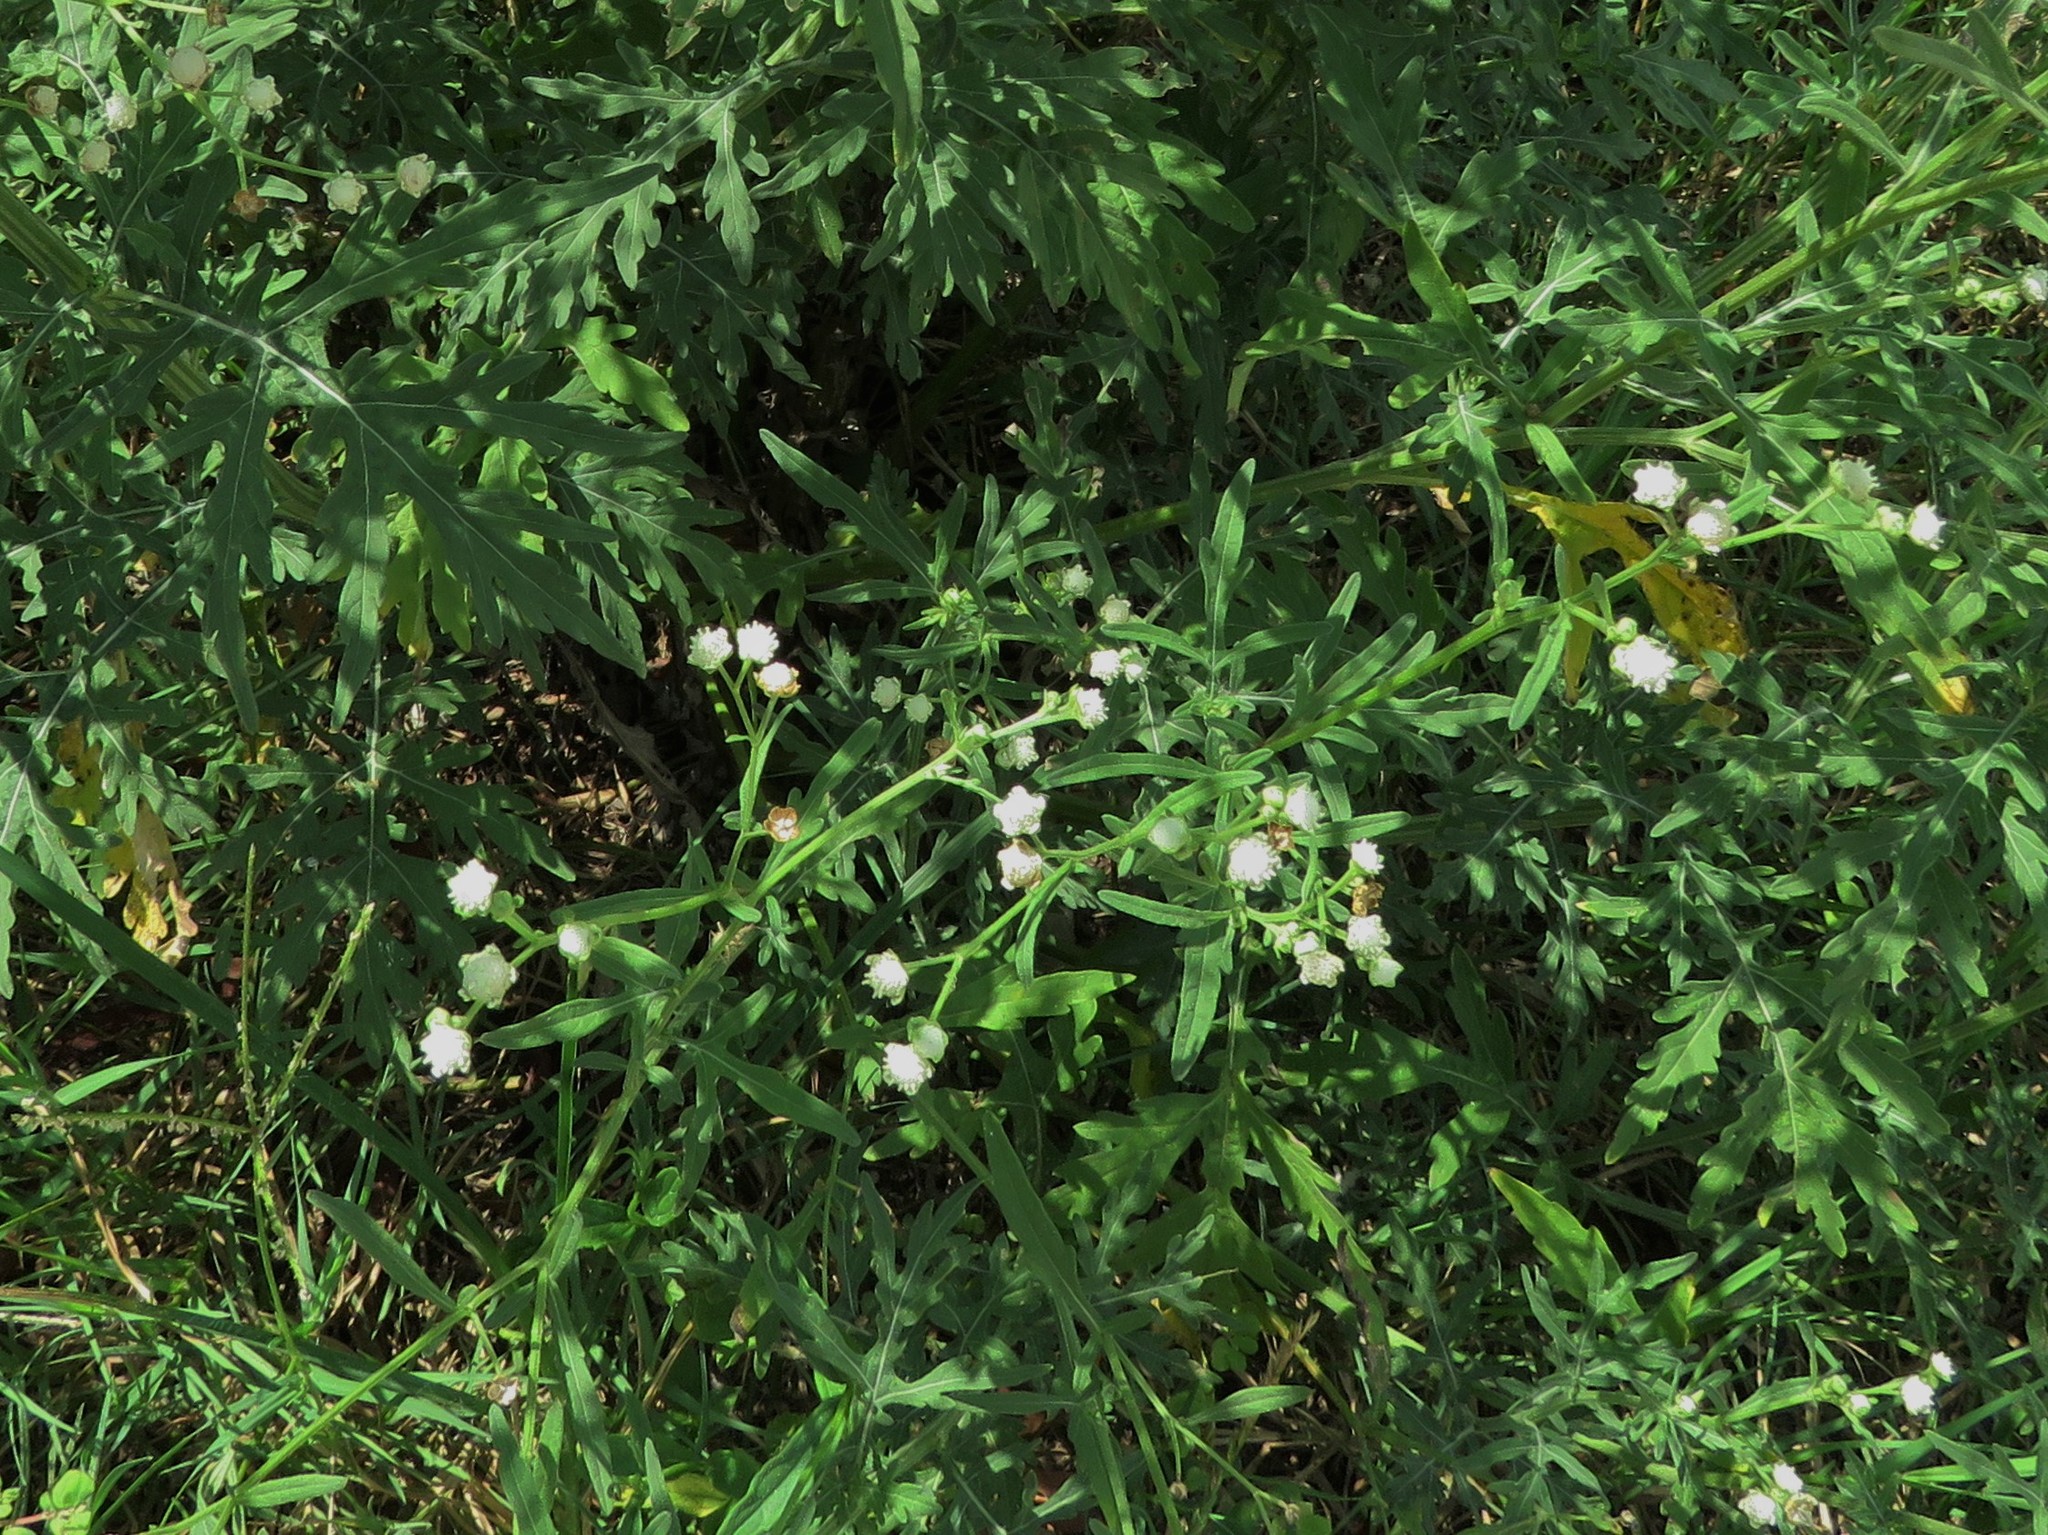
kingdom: Plantae
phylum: Tracheophyta
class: Magnoliopsida
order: Asterales
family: Asteraceae
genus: Parthenium
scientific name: Parthenium hysterophorus
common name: Santa maria feverfew
